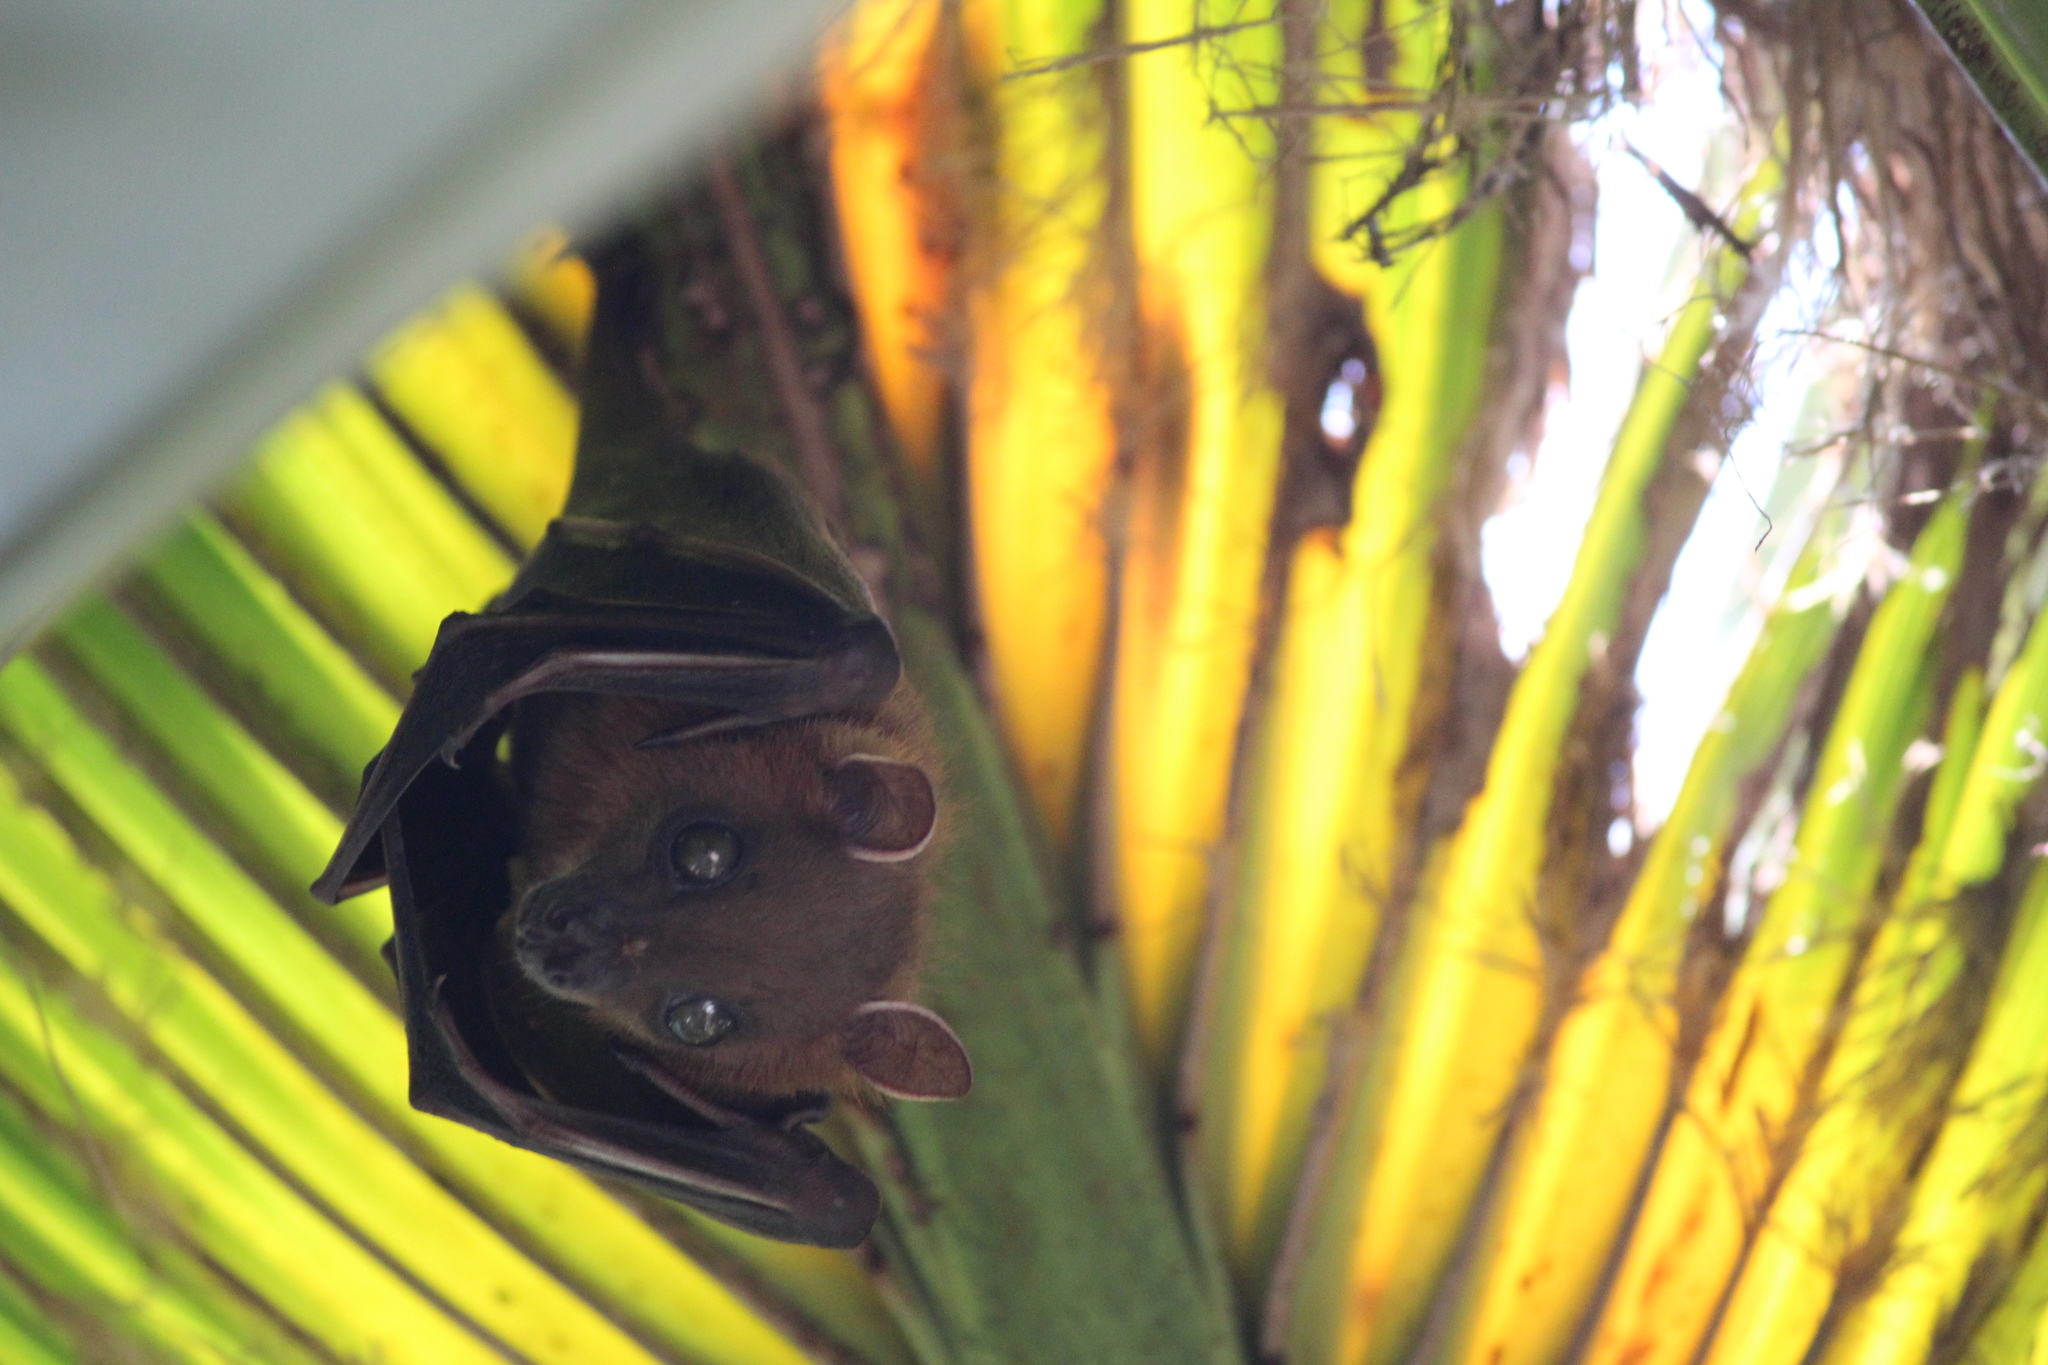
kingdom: Animalia
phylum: Chordata
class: Mammalia
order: Chiroptera
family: Pteropodidae
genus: Cynopterus
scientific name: Cynopterus sphinx
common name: Greater short-nosed fruit bat
